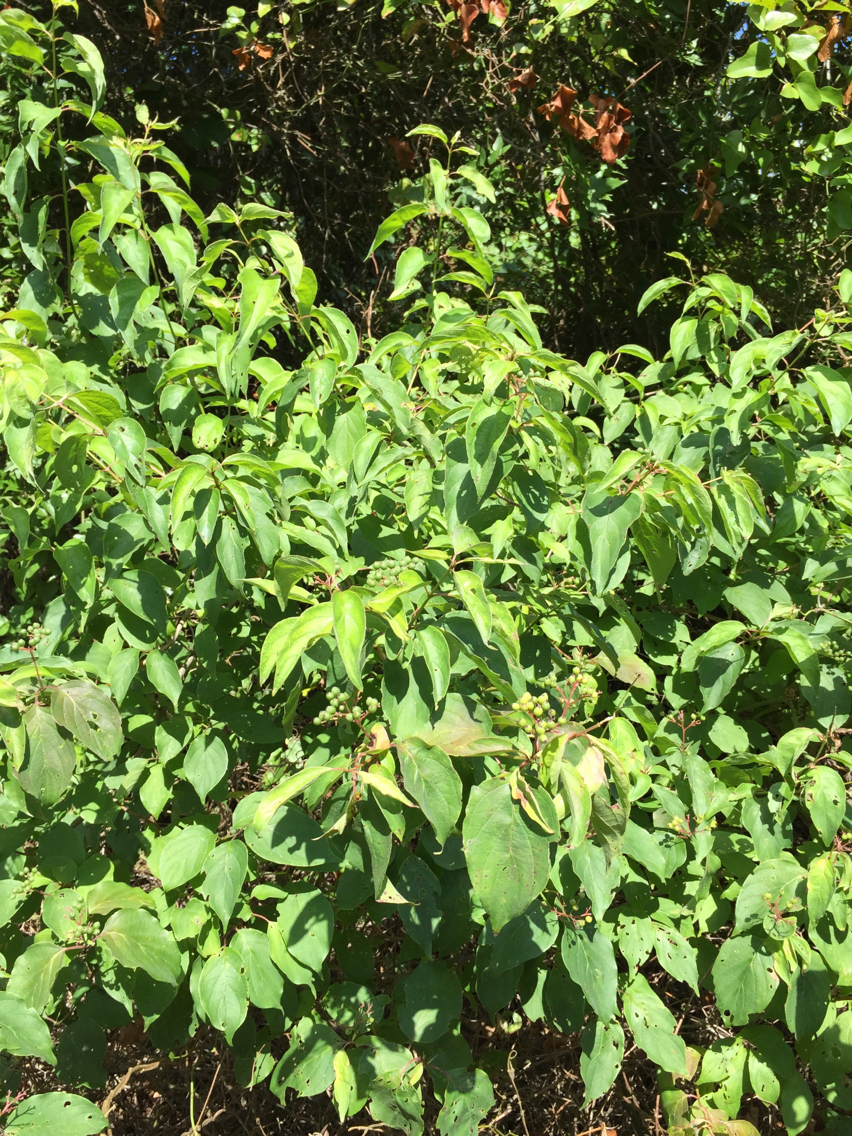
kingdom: Plantae
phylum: Tracheophyta
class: Magnoliopsida
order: Cornales
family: Cornaceae
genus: Cornus
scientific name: Cornus drummondii
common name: Rough-leaf dogwood
